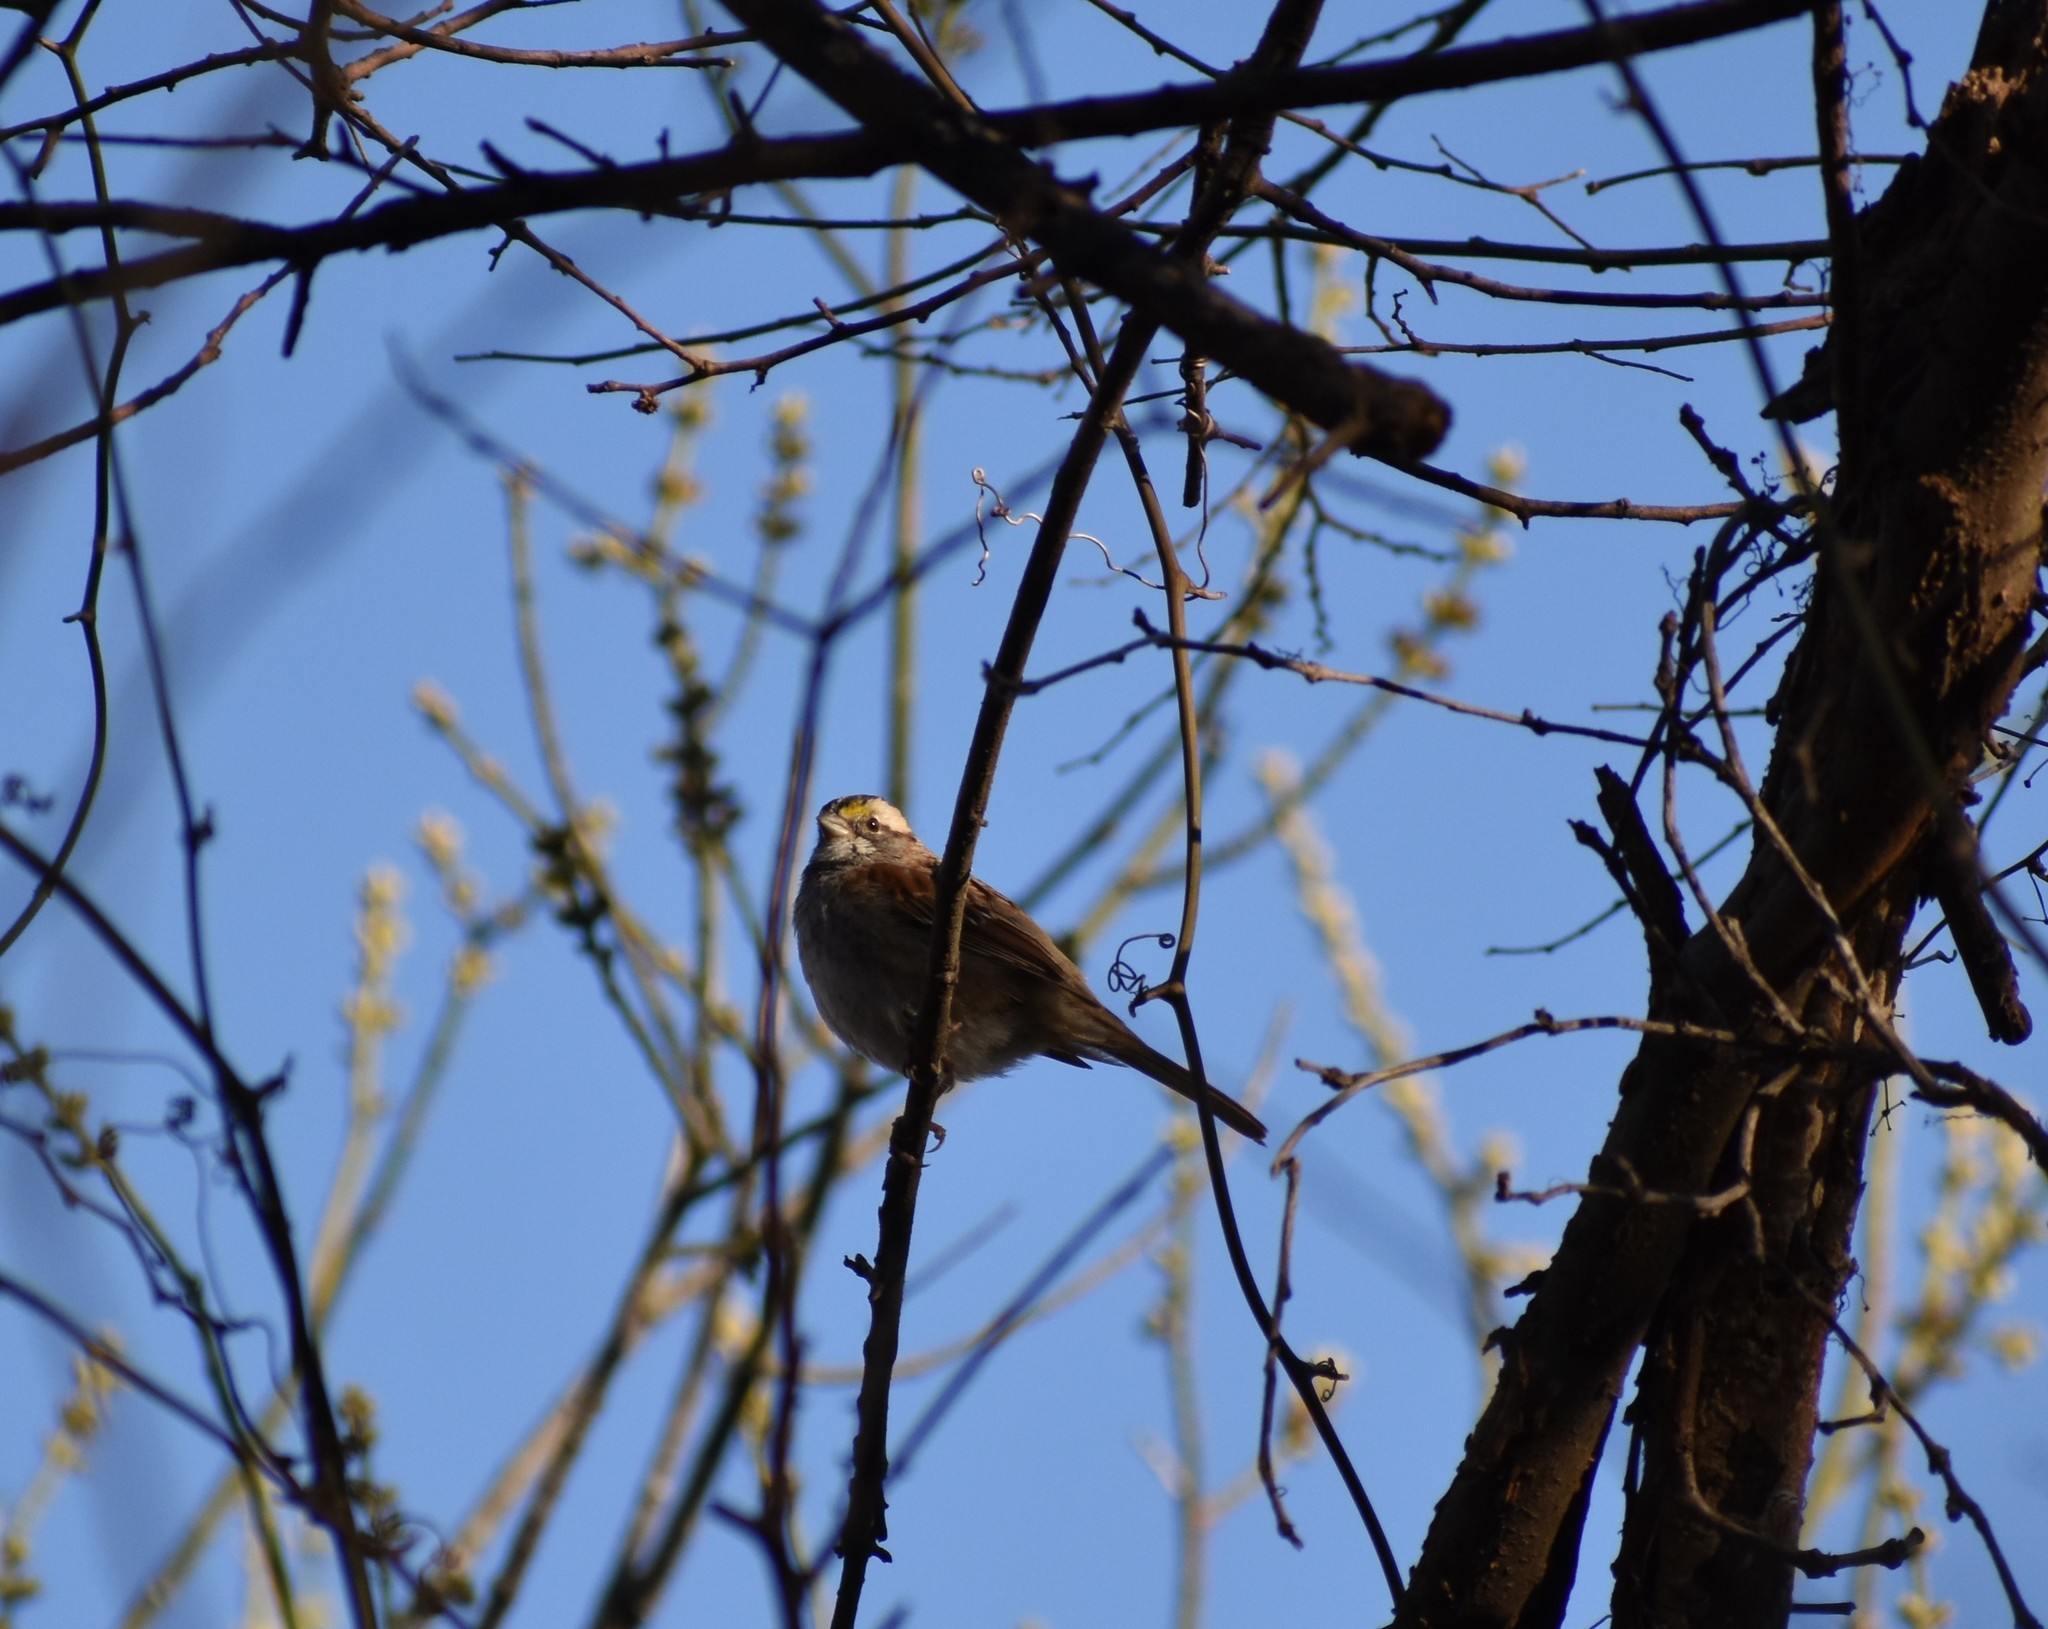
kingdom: Animalia
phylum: Chordata
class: Aves
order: Passeriformes
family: Passerellidae
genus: Zonotrichia
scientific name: Zonotrichia albicollis
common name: White-throated sparrow
